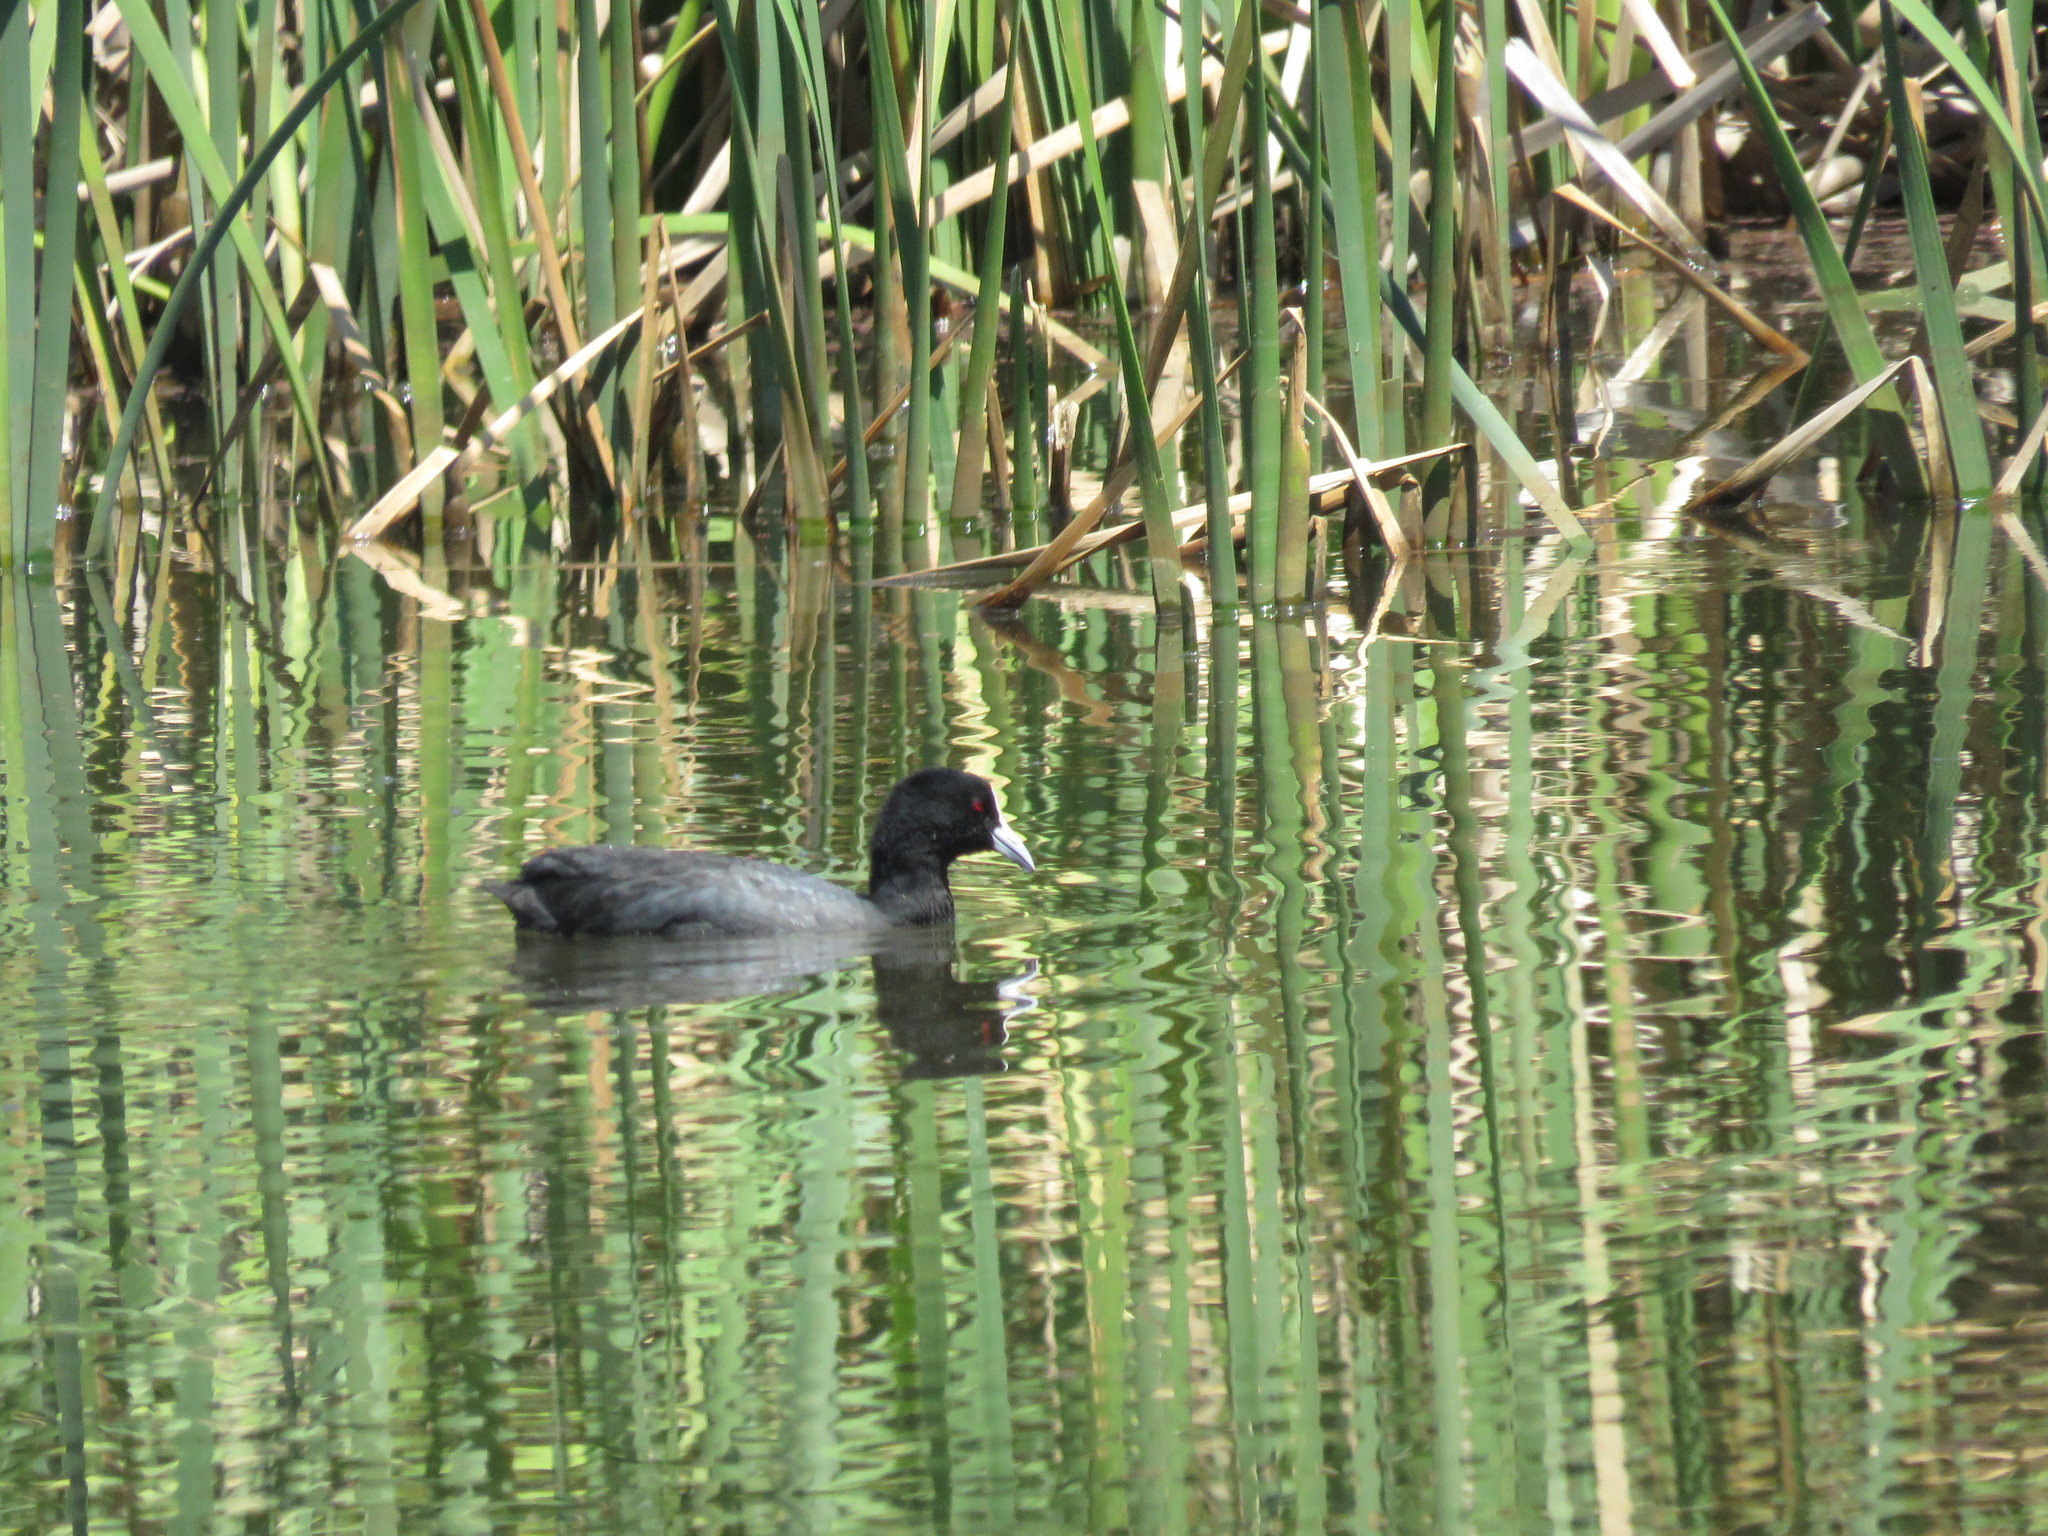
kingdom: Animalia
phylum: Chordata
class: Aves
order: Gruiformes
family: Rallidae
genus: Fulica
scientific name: Fulica atra
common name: Eurasian coot
